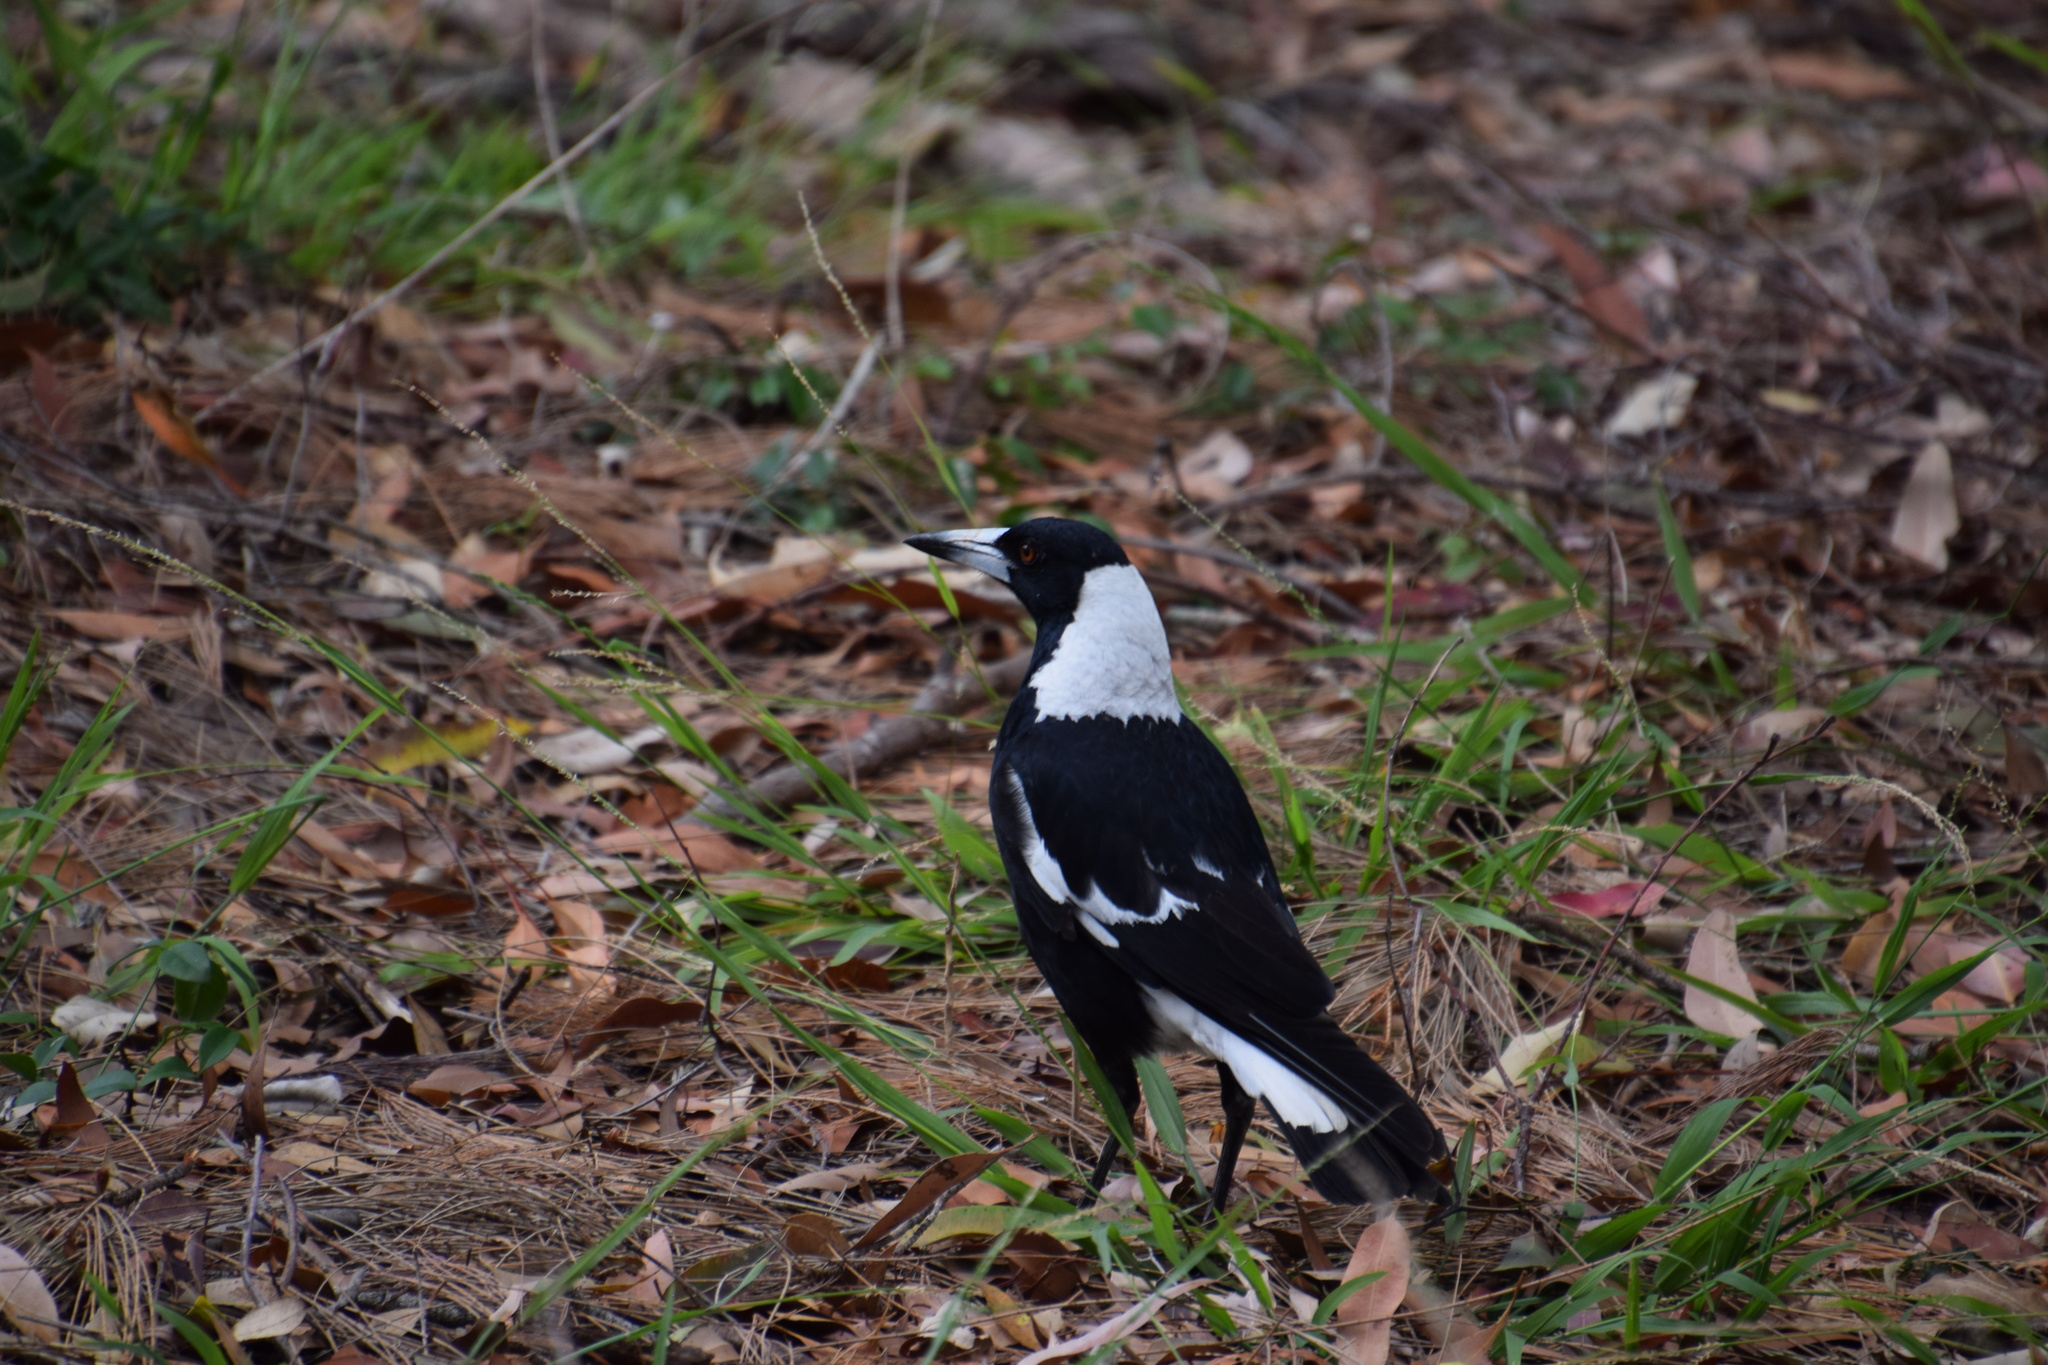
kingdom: Animalia
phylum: Chordata
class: Aves
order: Passeriformes
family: Cracticidae
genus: Gymnorhina
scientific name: Gymnorhina tibicen
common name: Australian magpie
